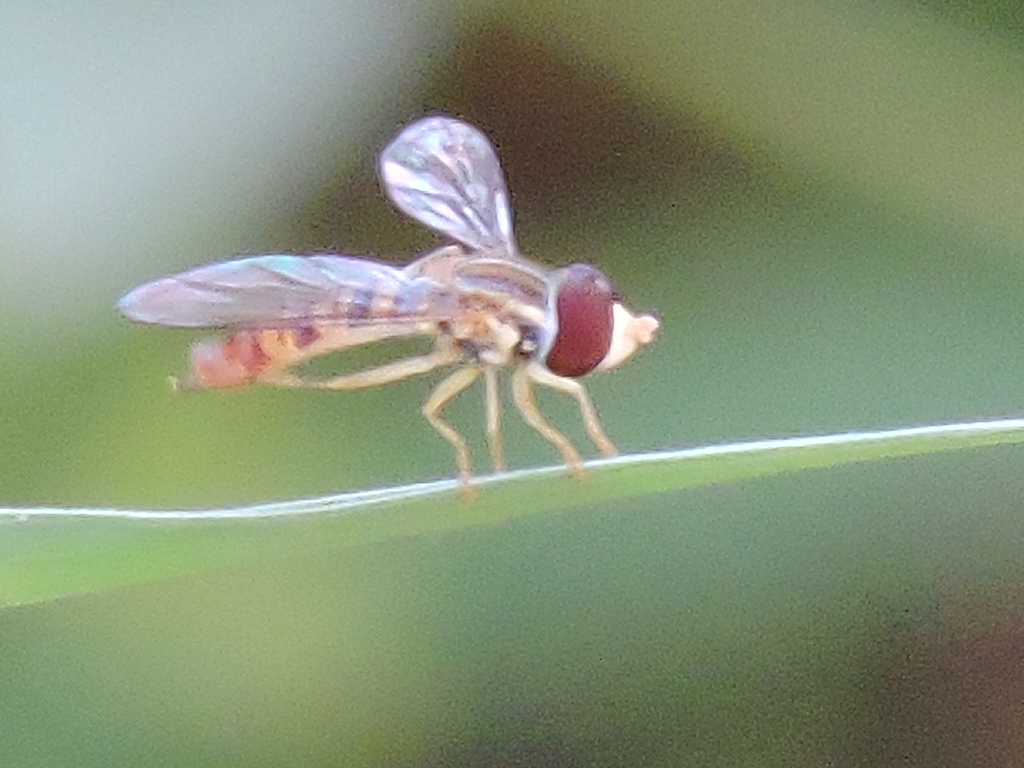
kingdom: Animalia
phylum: Arthropoda
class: Insecta
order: Diptera
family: Syrphidae
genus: Toxomerus
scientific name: Toxomerus politus
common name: Maize calligrapher
